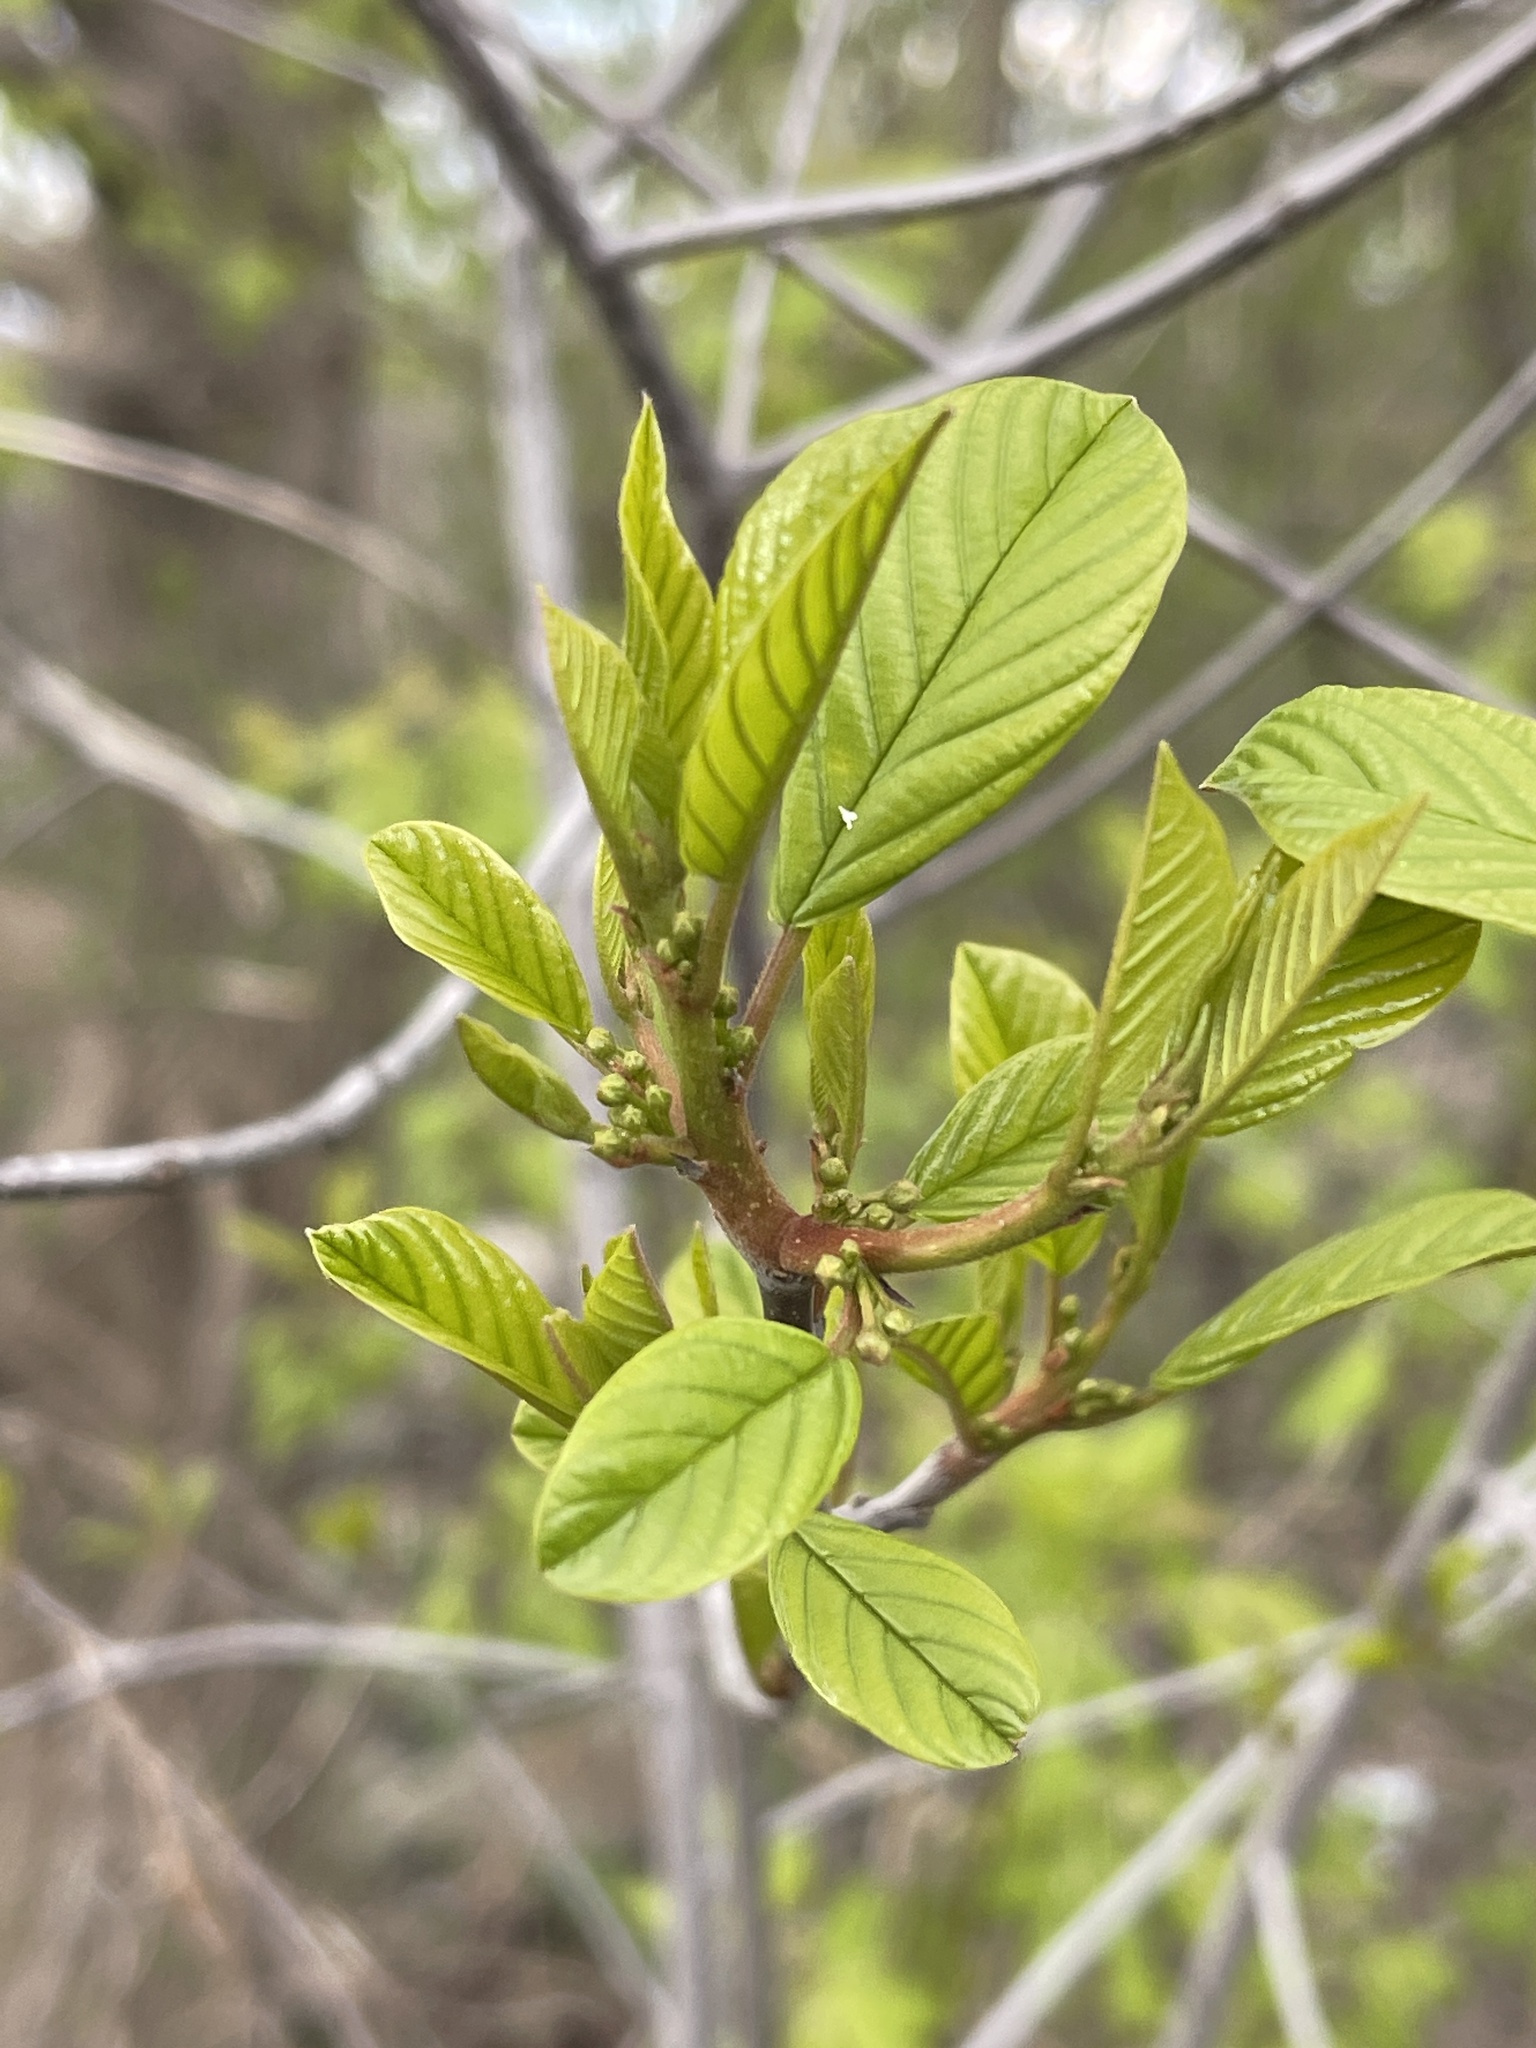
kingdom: Plantae
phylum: Tracheophyta
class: Magnoliopsida
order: Rosales
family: Rhamnaceae
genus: Frangula
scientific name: Frangula alnus
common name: Alder buckthorn
